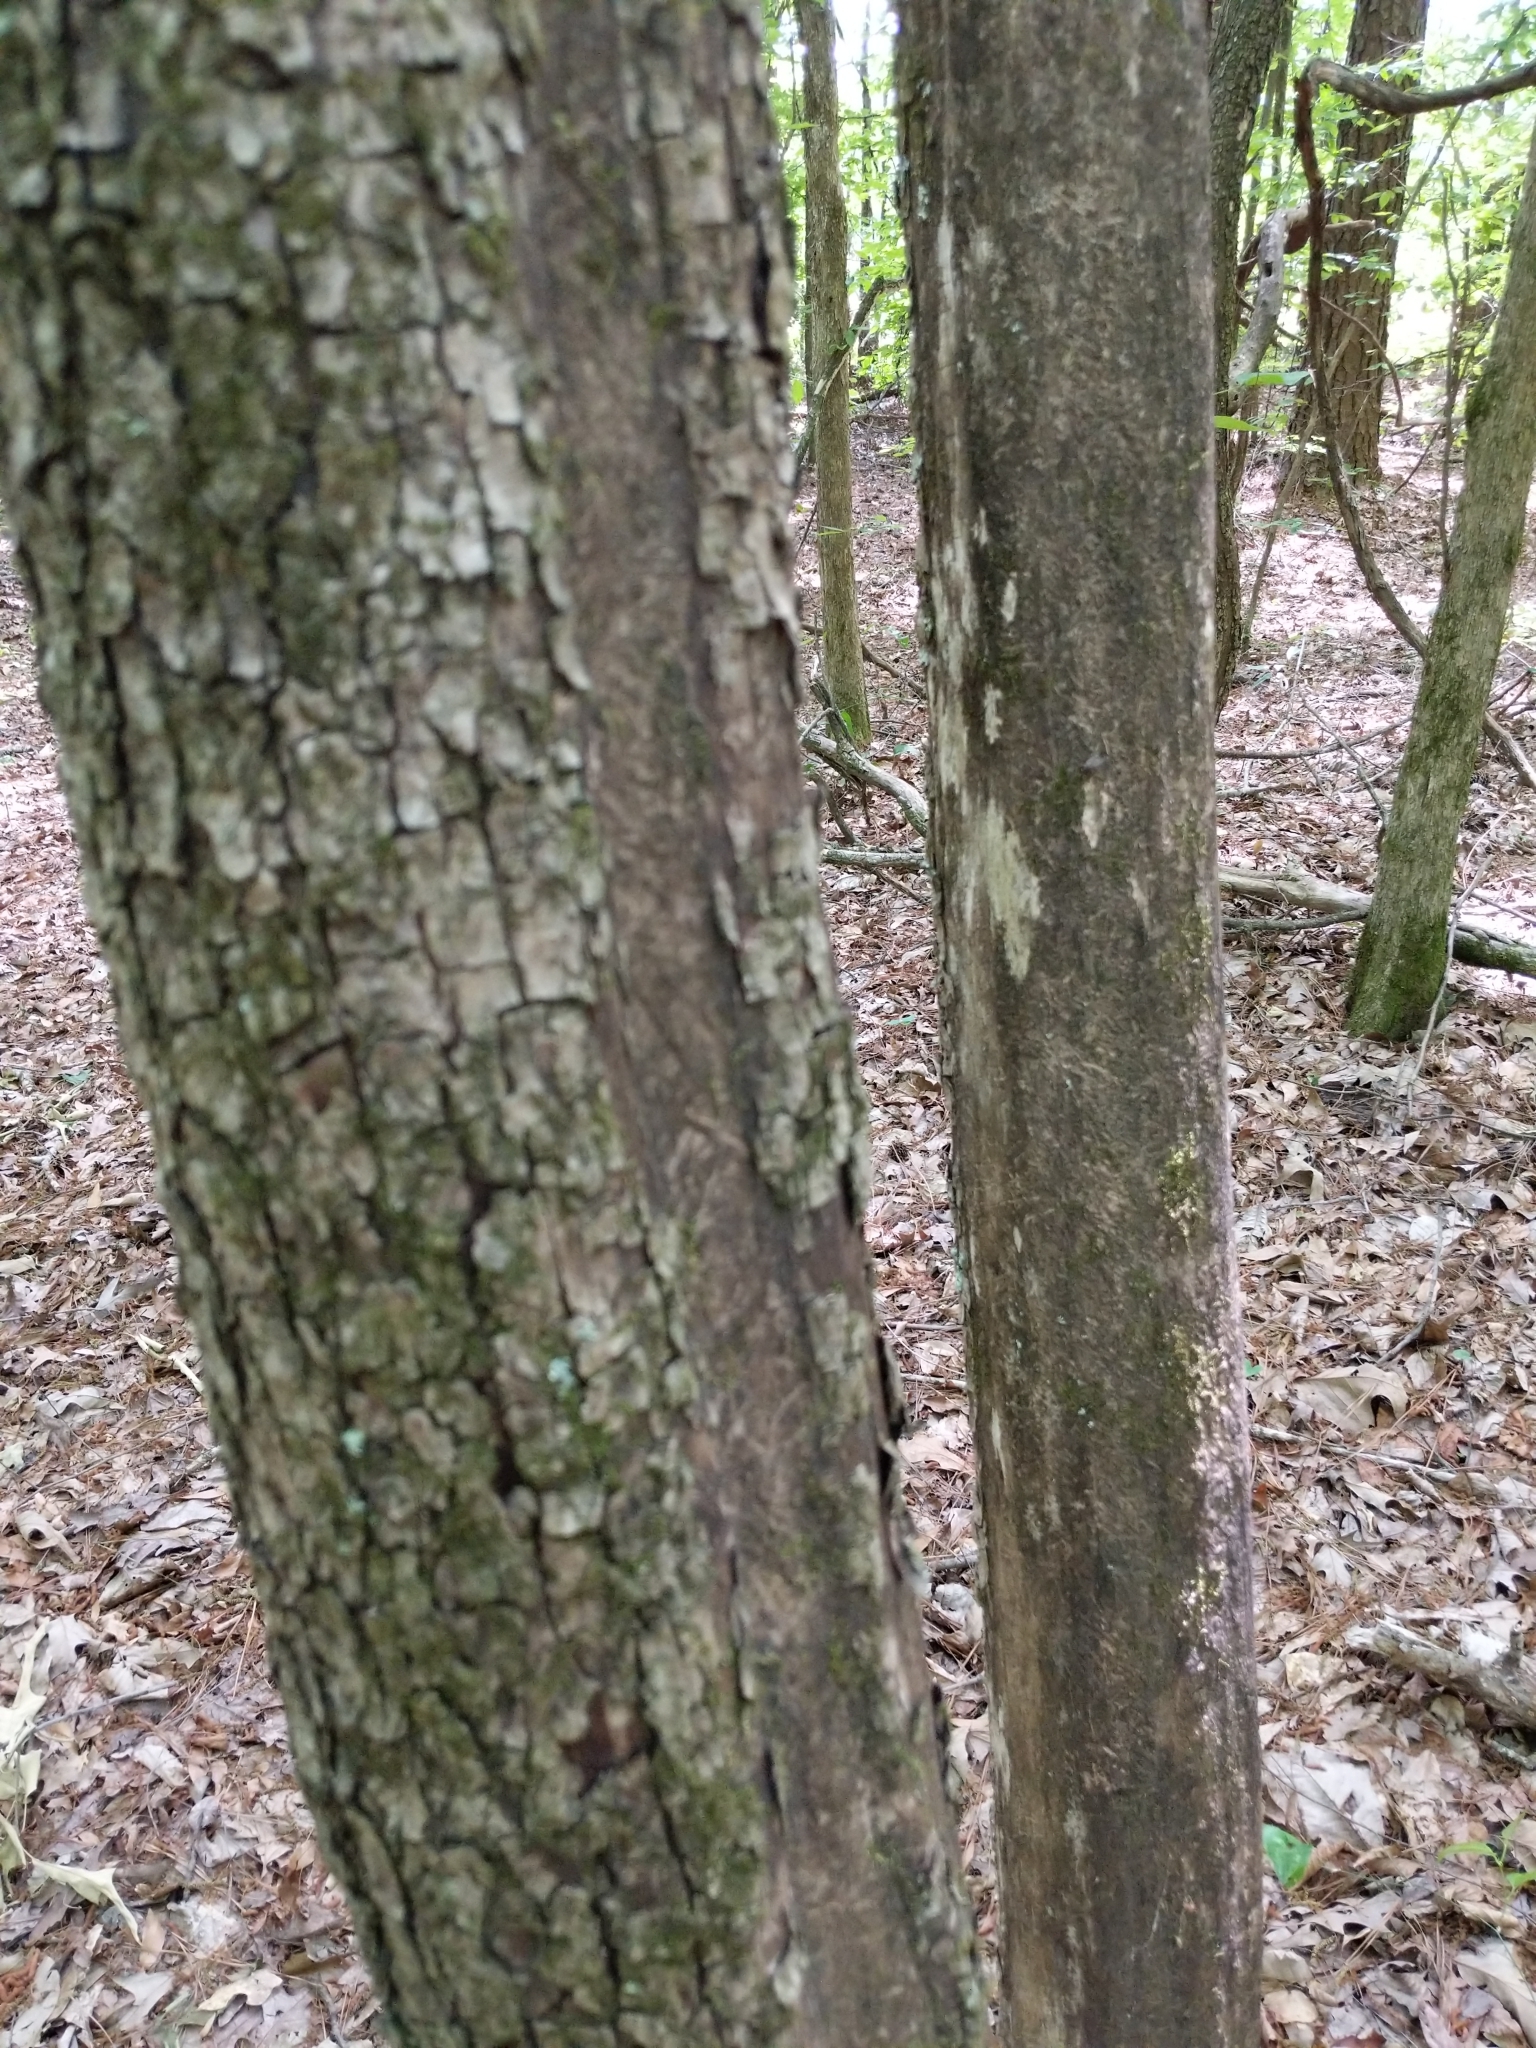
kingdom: Plantae
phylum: Tracheophyta
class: Magnoliopsida
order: Lamiales
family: Bignoniaceae
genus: Catalpa
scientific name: Catalpa bignonioides
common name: Southern catalpa
